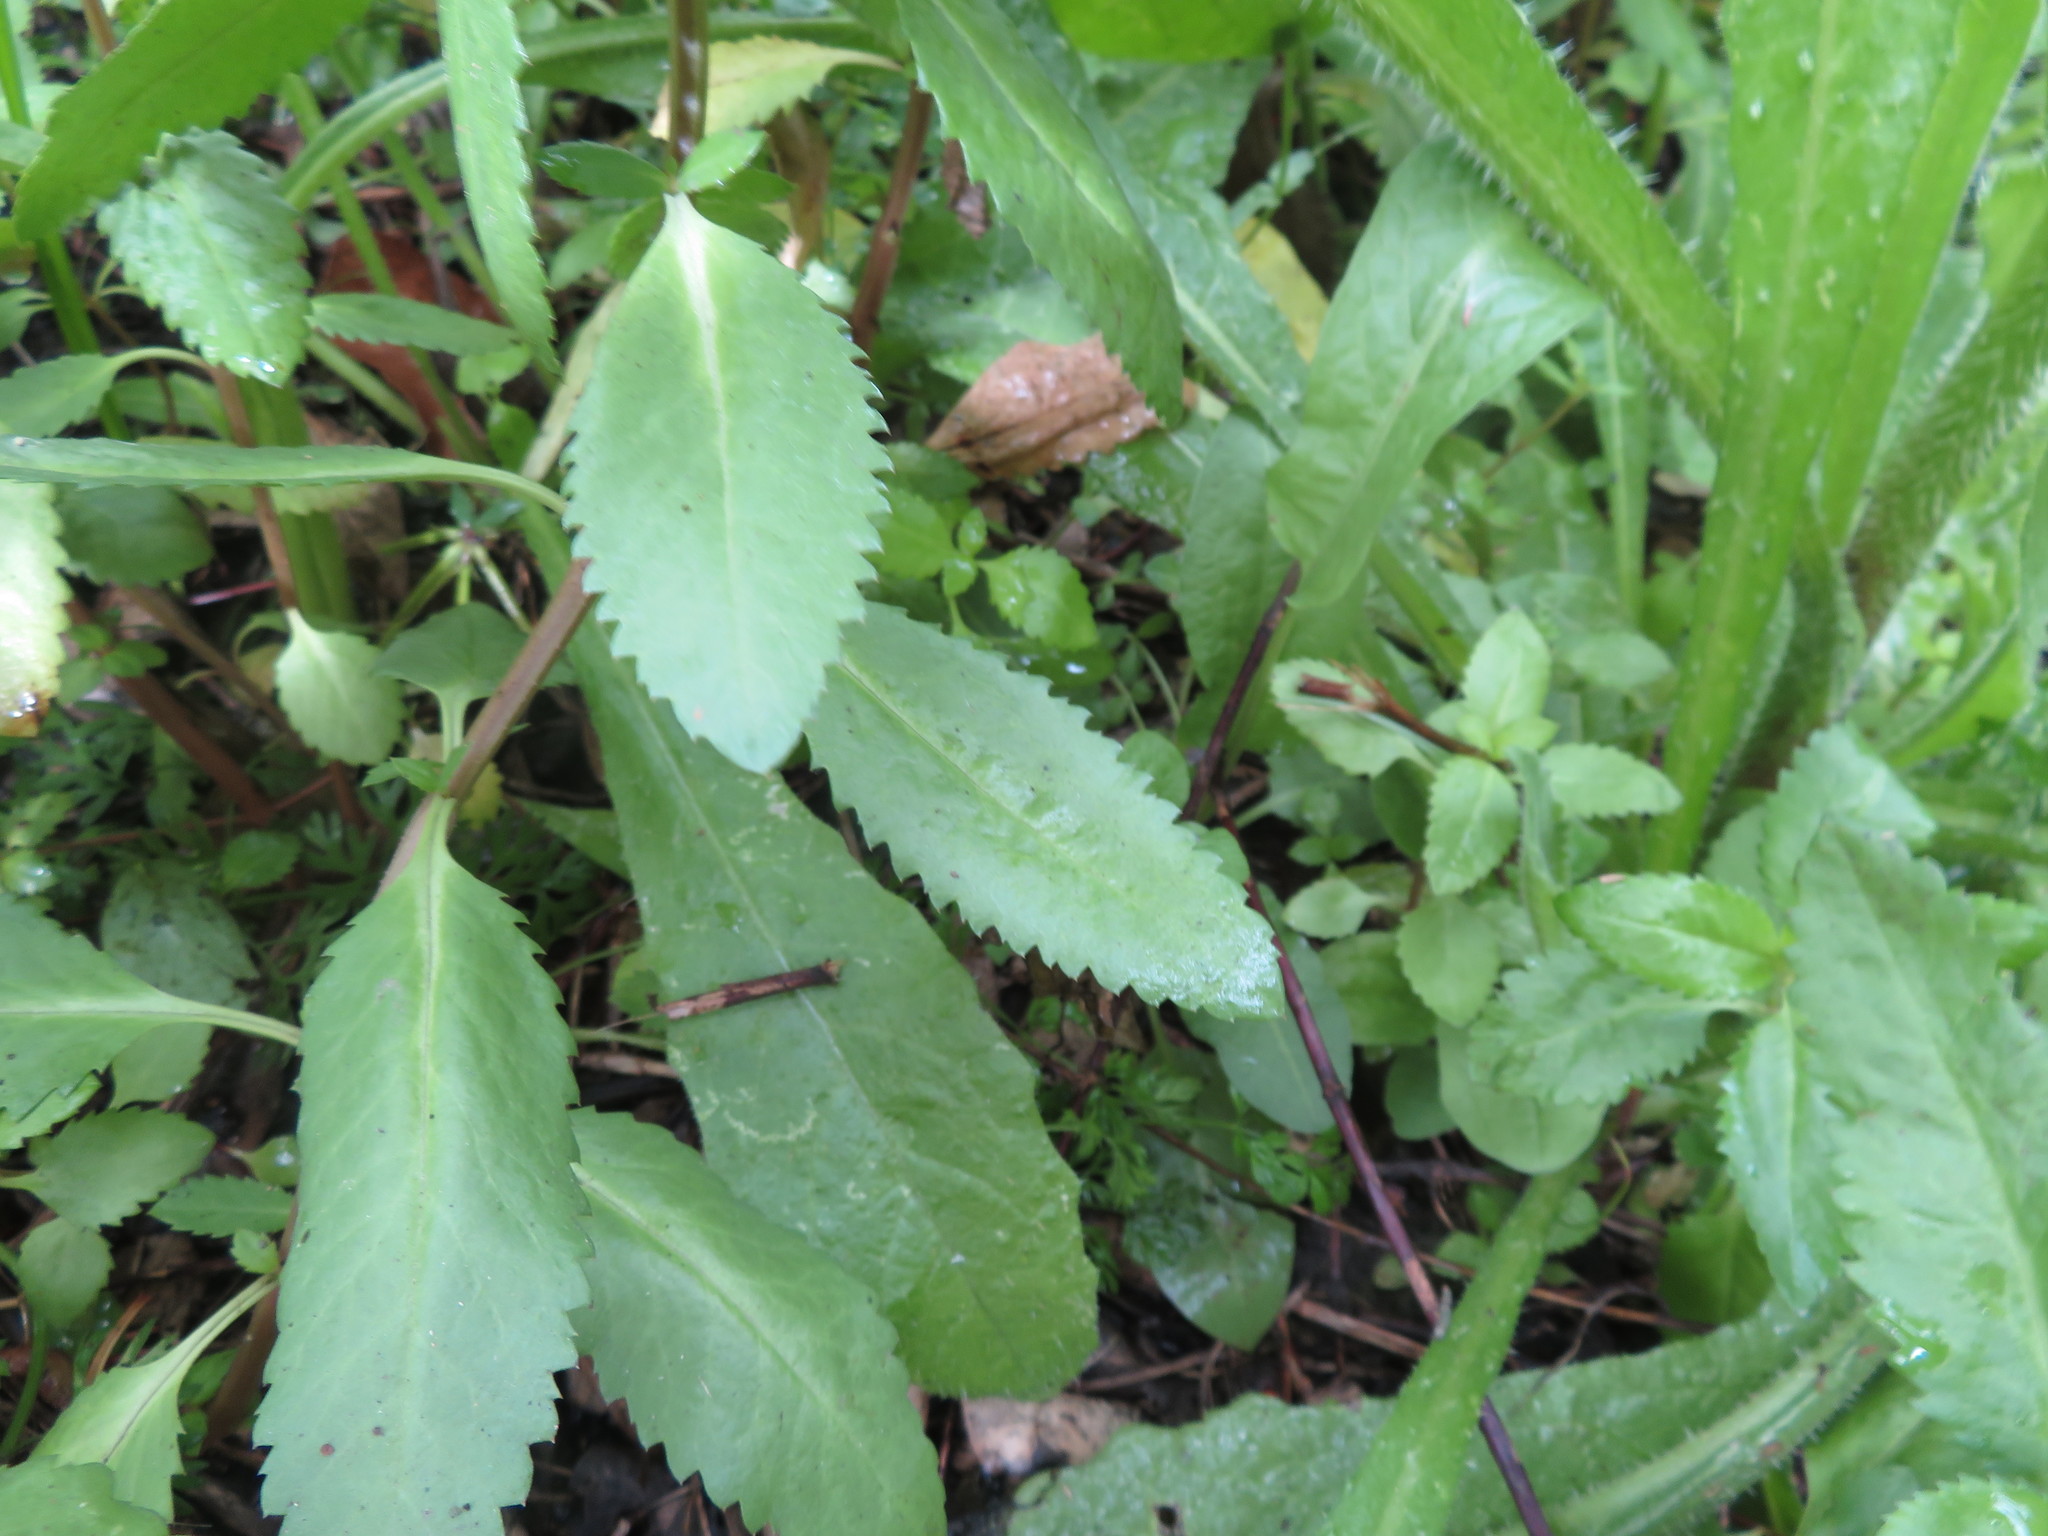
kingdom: Plantae
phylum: Tracheophyta
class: Magnoliopsida
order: Saxifragales
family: Haloragaceae
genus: Haloragis
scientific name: Haloragis erecta
